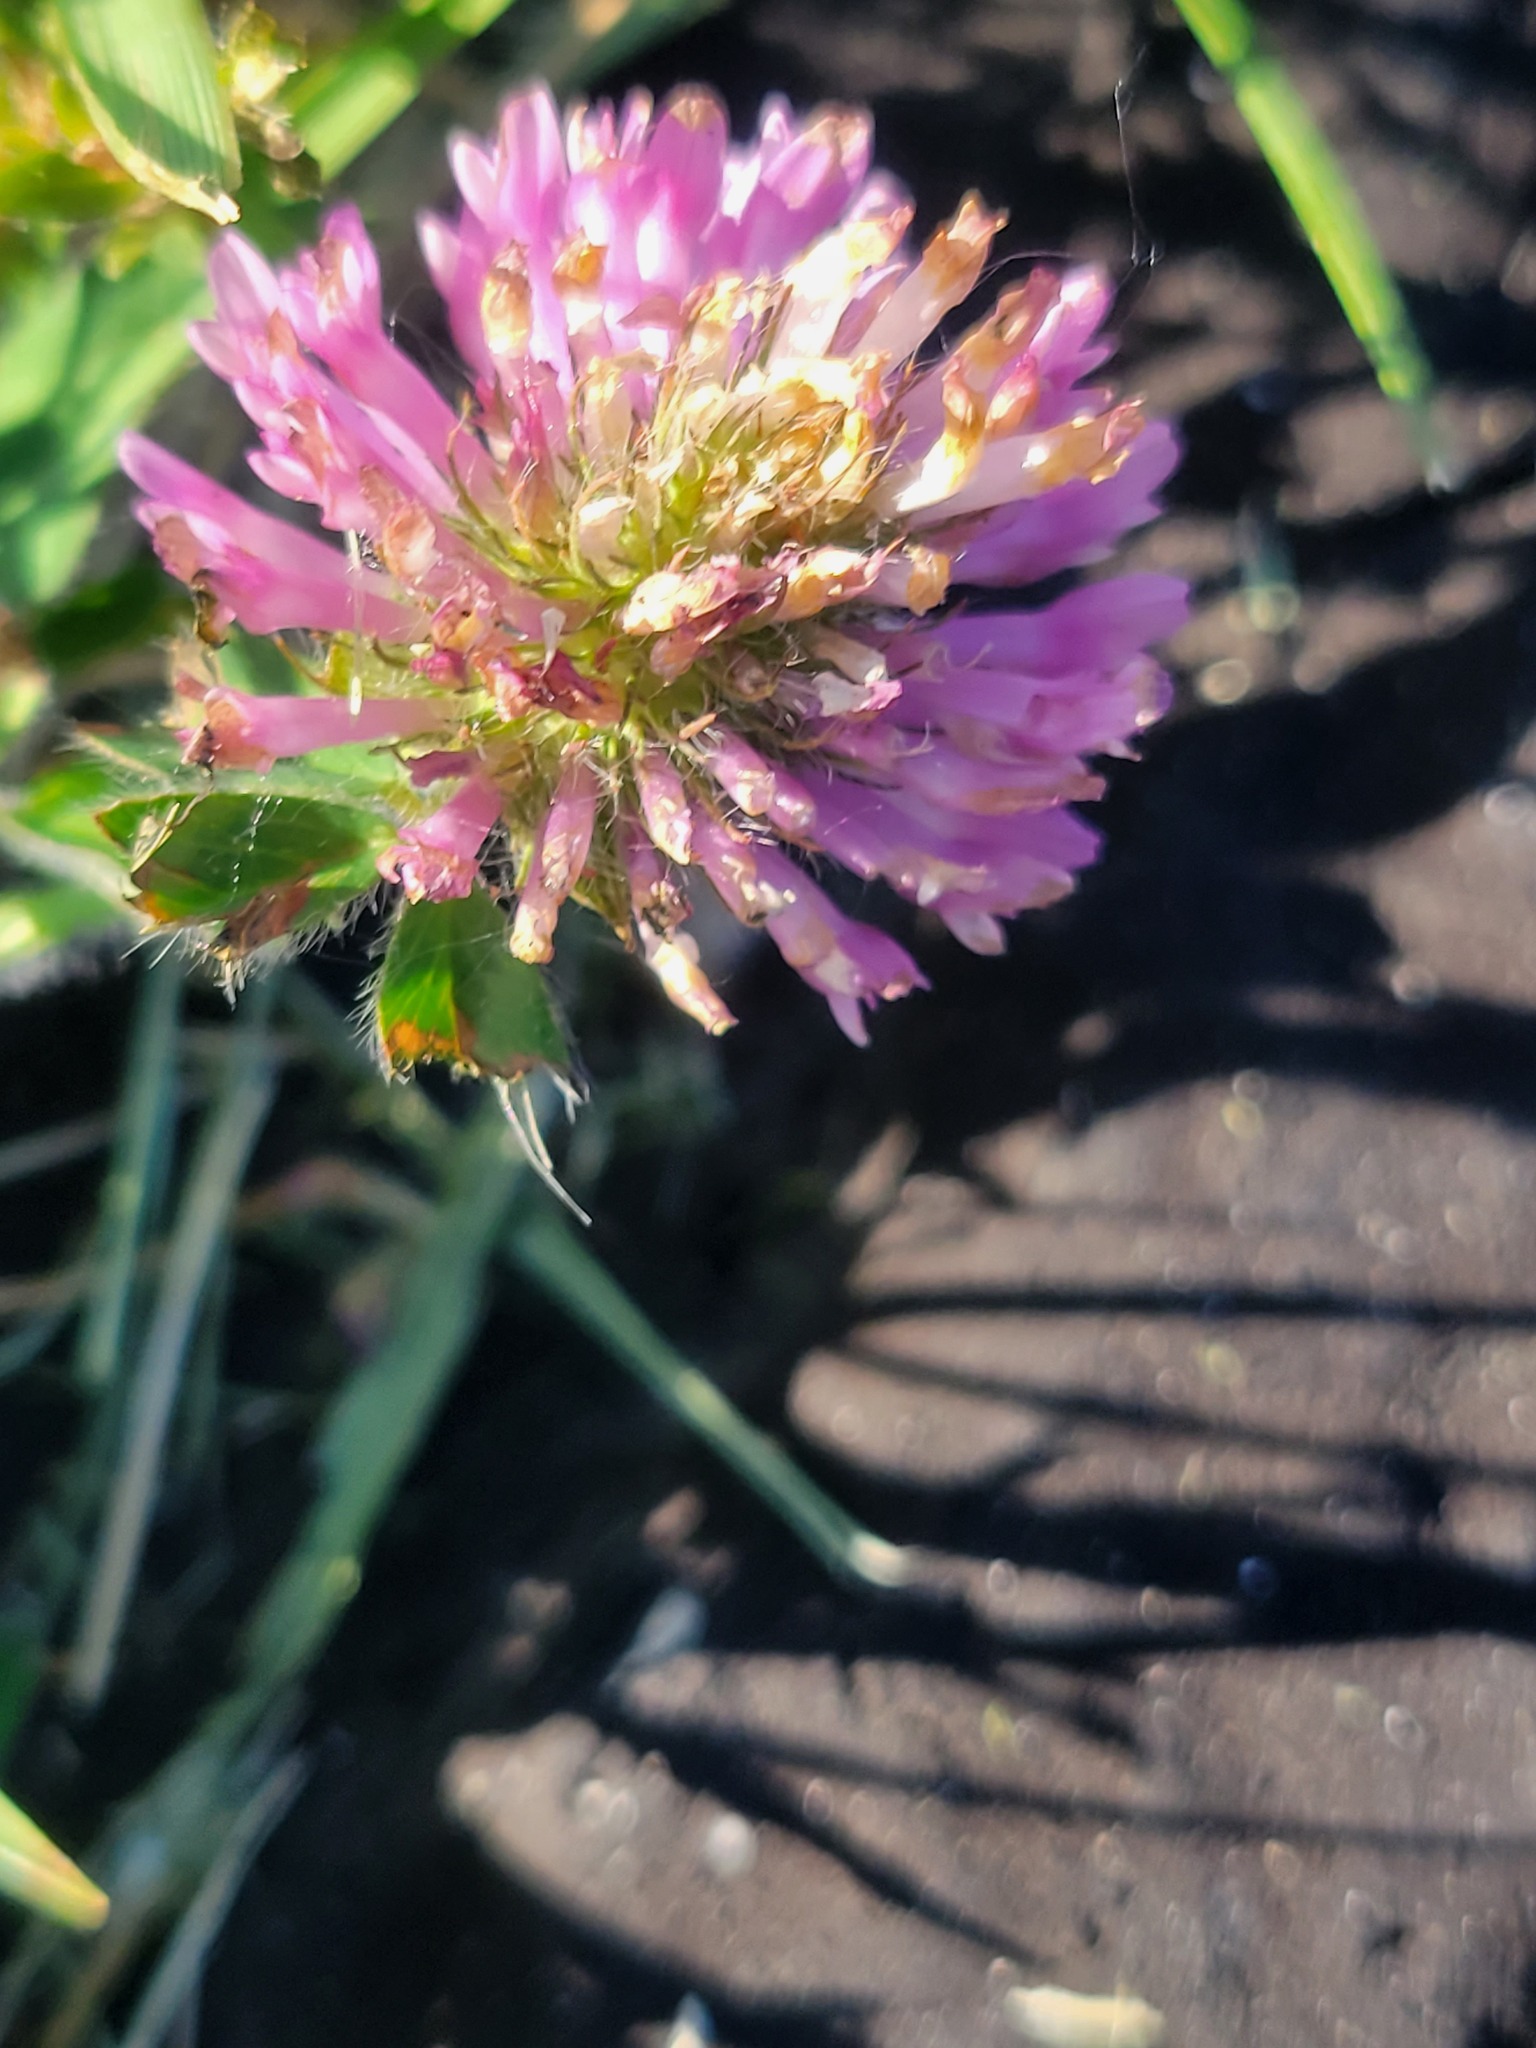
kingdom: Plantae
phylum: Tracheophyta
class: Magnoliopsida
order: Fabales
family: Fabaceae
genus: Trifolium
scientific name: Trifolium pratense
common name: Red clover
